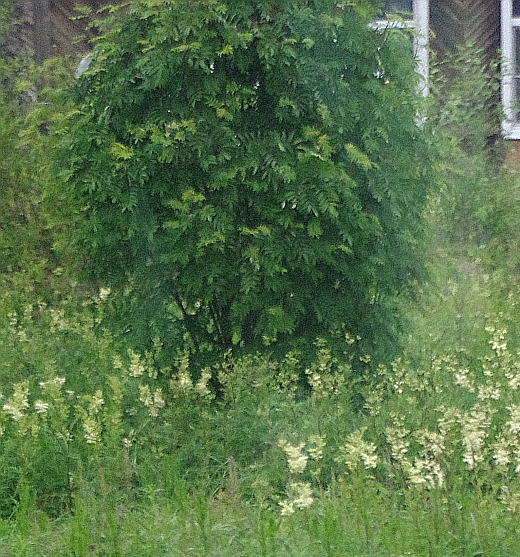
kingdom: Plantae
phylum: Tracheophyta
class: Magnoliopsida
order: Rosales
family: Rosaceae
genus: Sorbus
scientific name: Sorbus aucuparia
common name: Rowan
